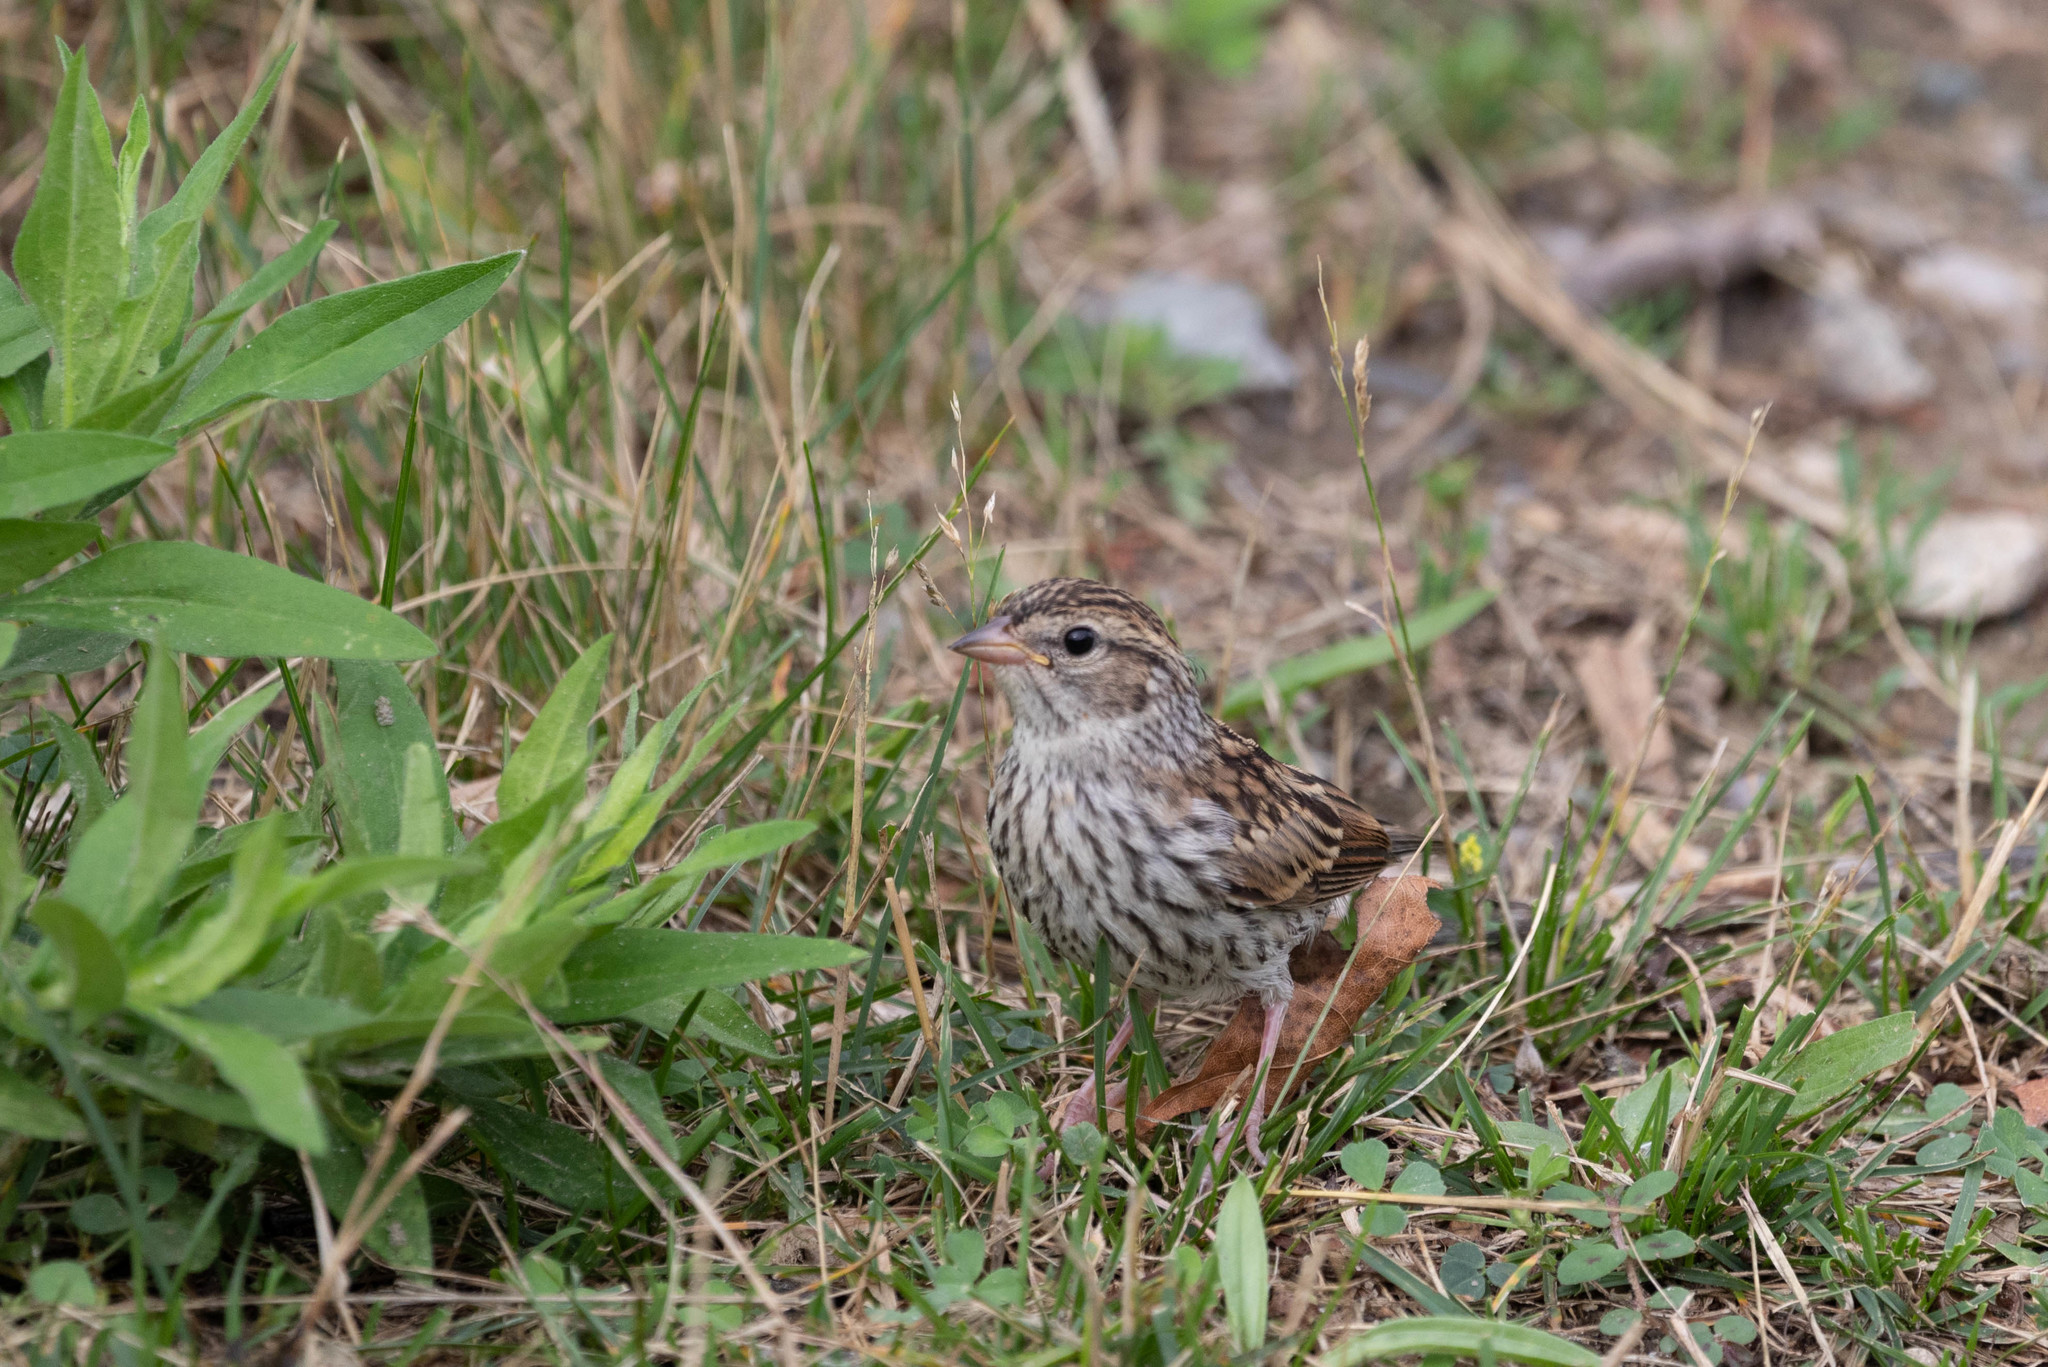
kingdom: Animalia
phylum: Chordata
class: Aves
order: Passeriformes
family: Passerellidae
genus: Spizella
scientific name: Spizella passerina
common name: Chipping sparrow
